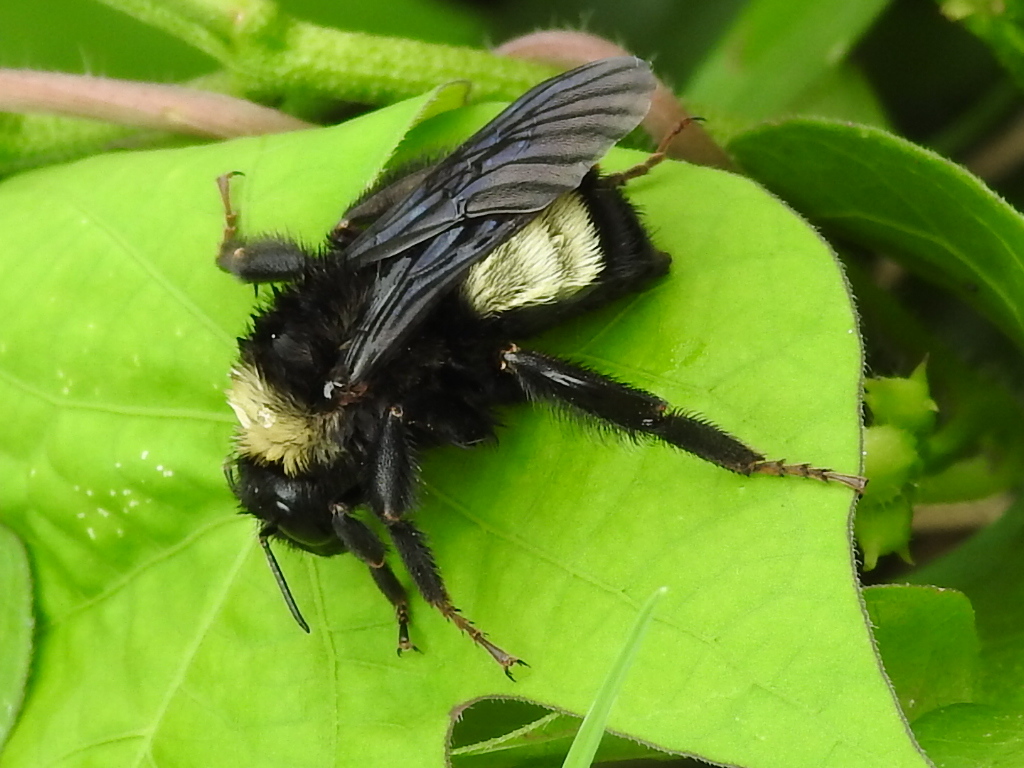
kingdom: Animalia
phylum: Arthropoda
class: Insecta
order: Hymenoptera
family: Apidae
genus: Bombus
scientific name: Bombus pensylvanicus
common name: Bumble bee
